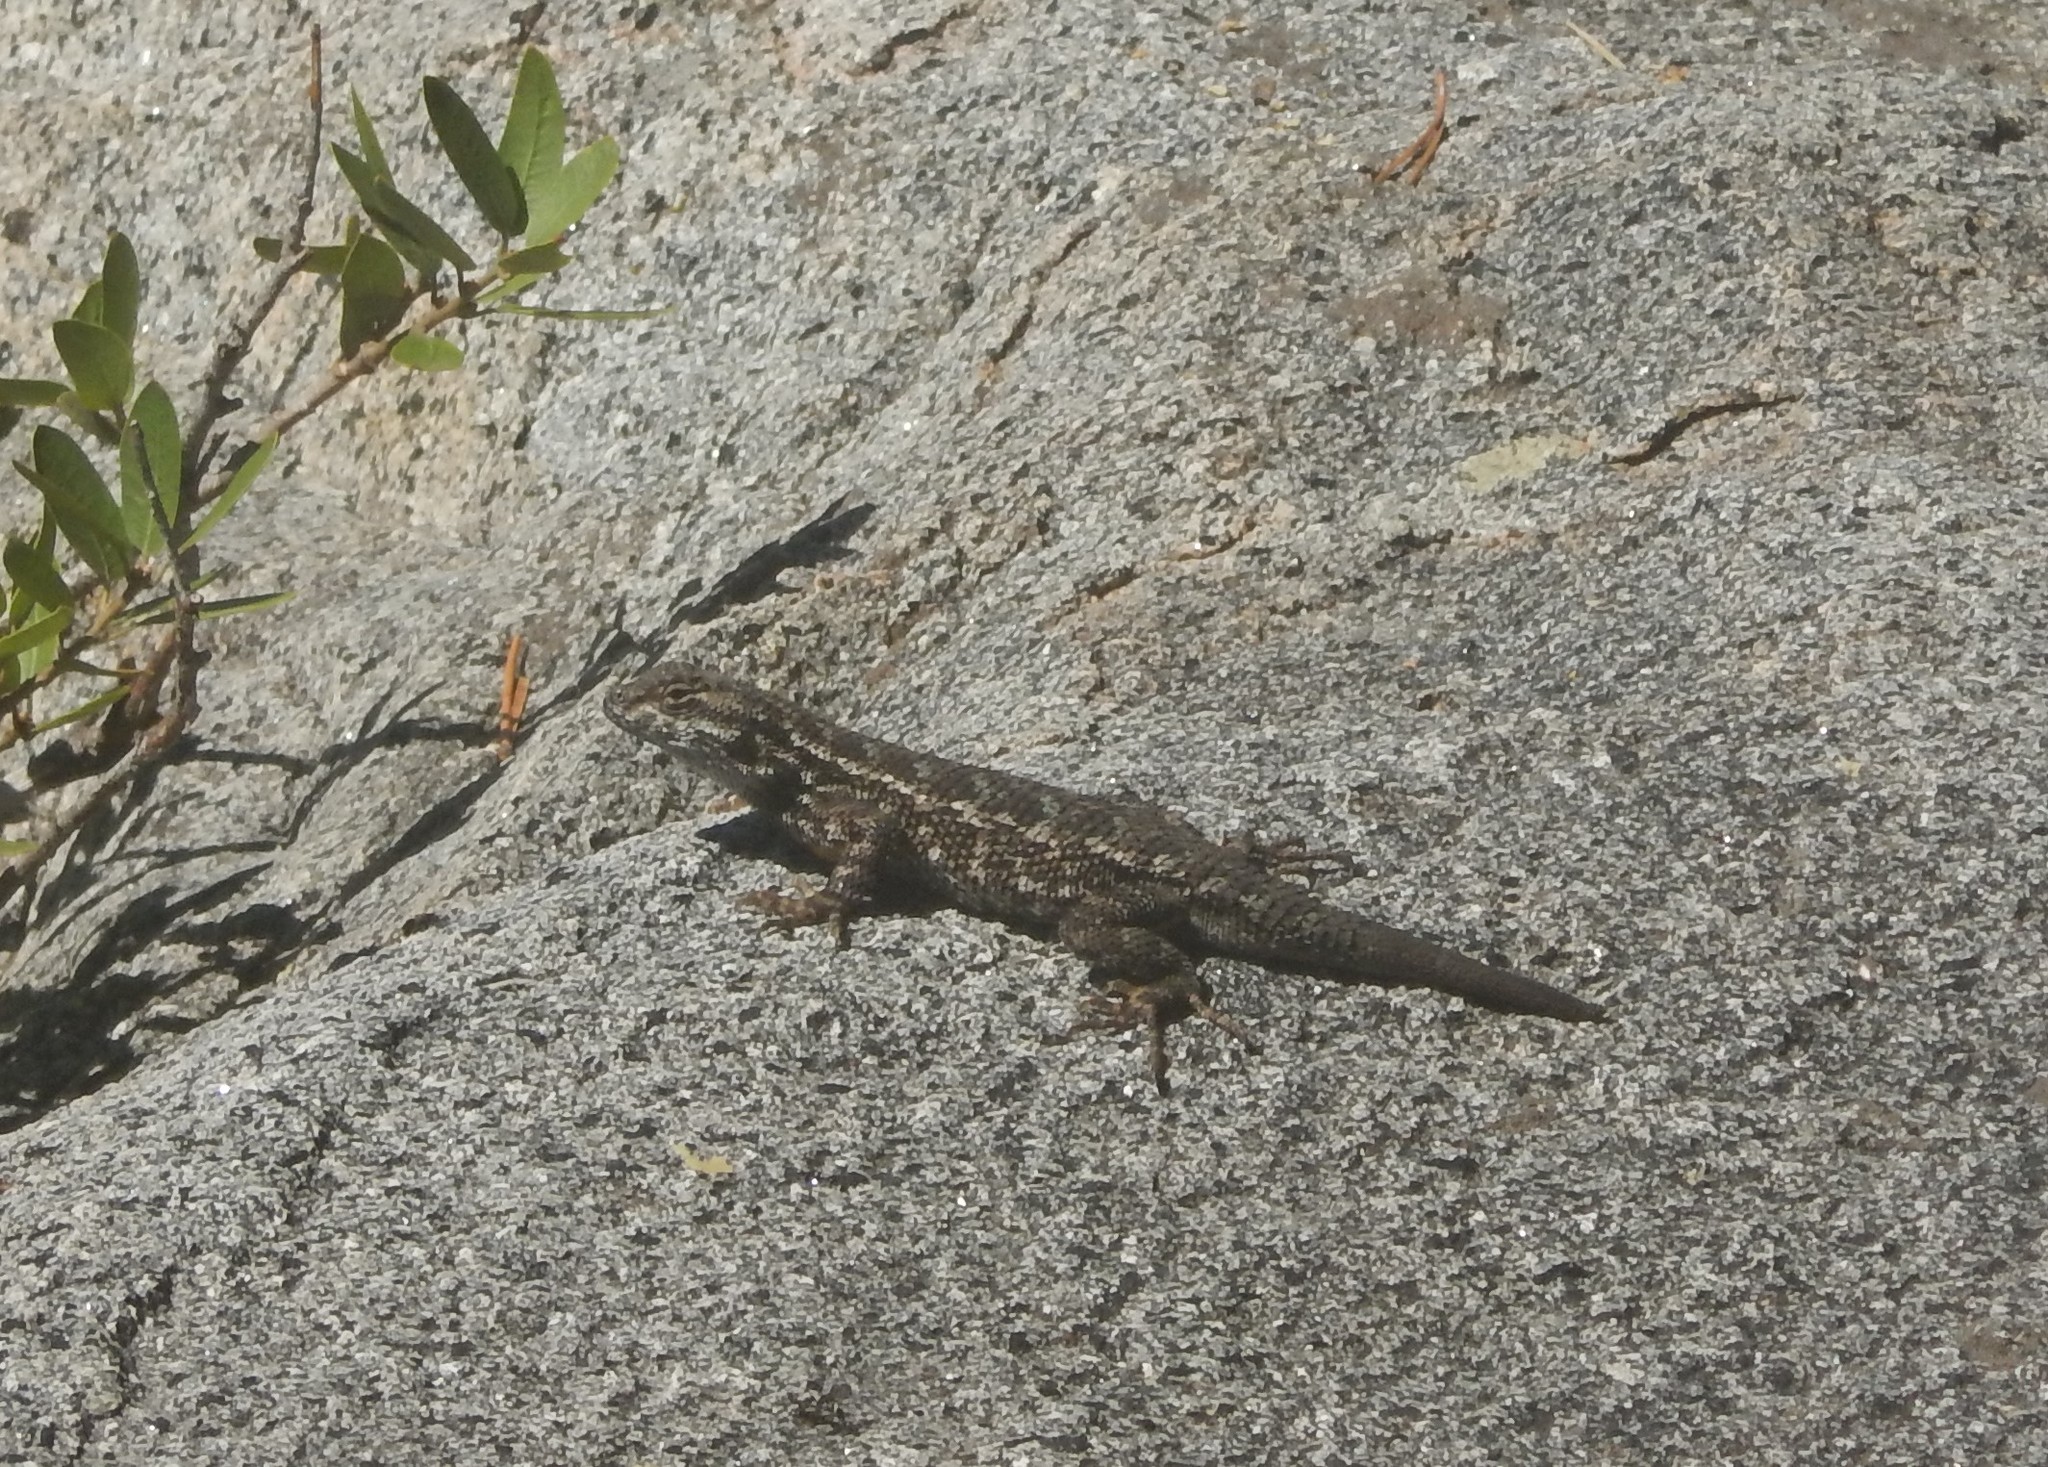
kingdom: Animalia
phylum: Chordata
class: Squamata
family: Phrynosomatidae
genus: Sceloporus
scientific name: Sceloporus occidentalis
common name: Western fence lizard
